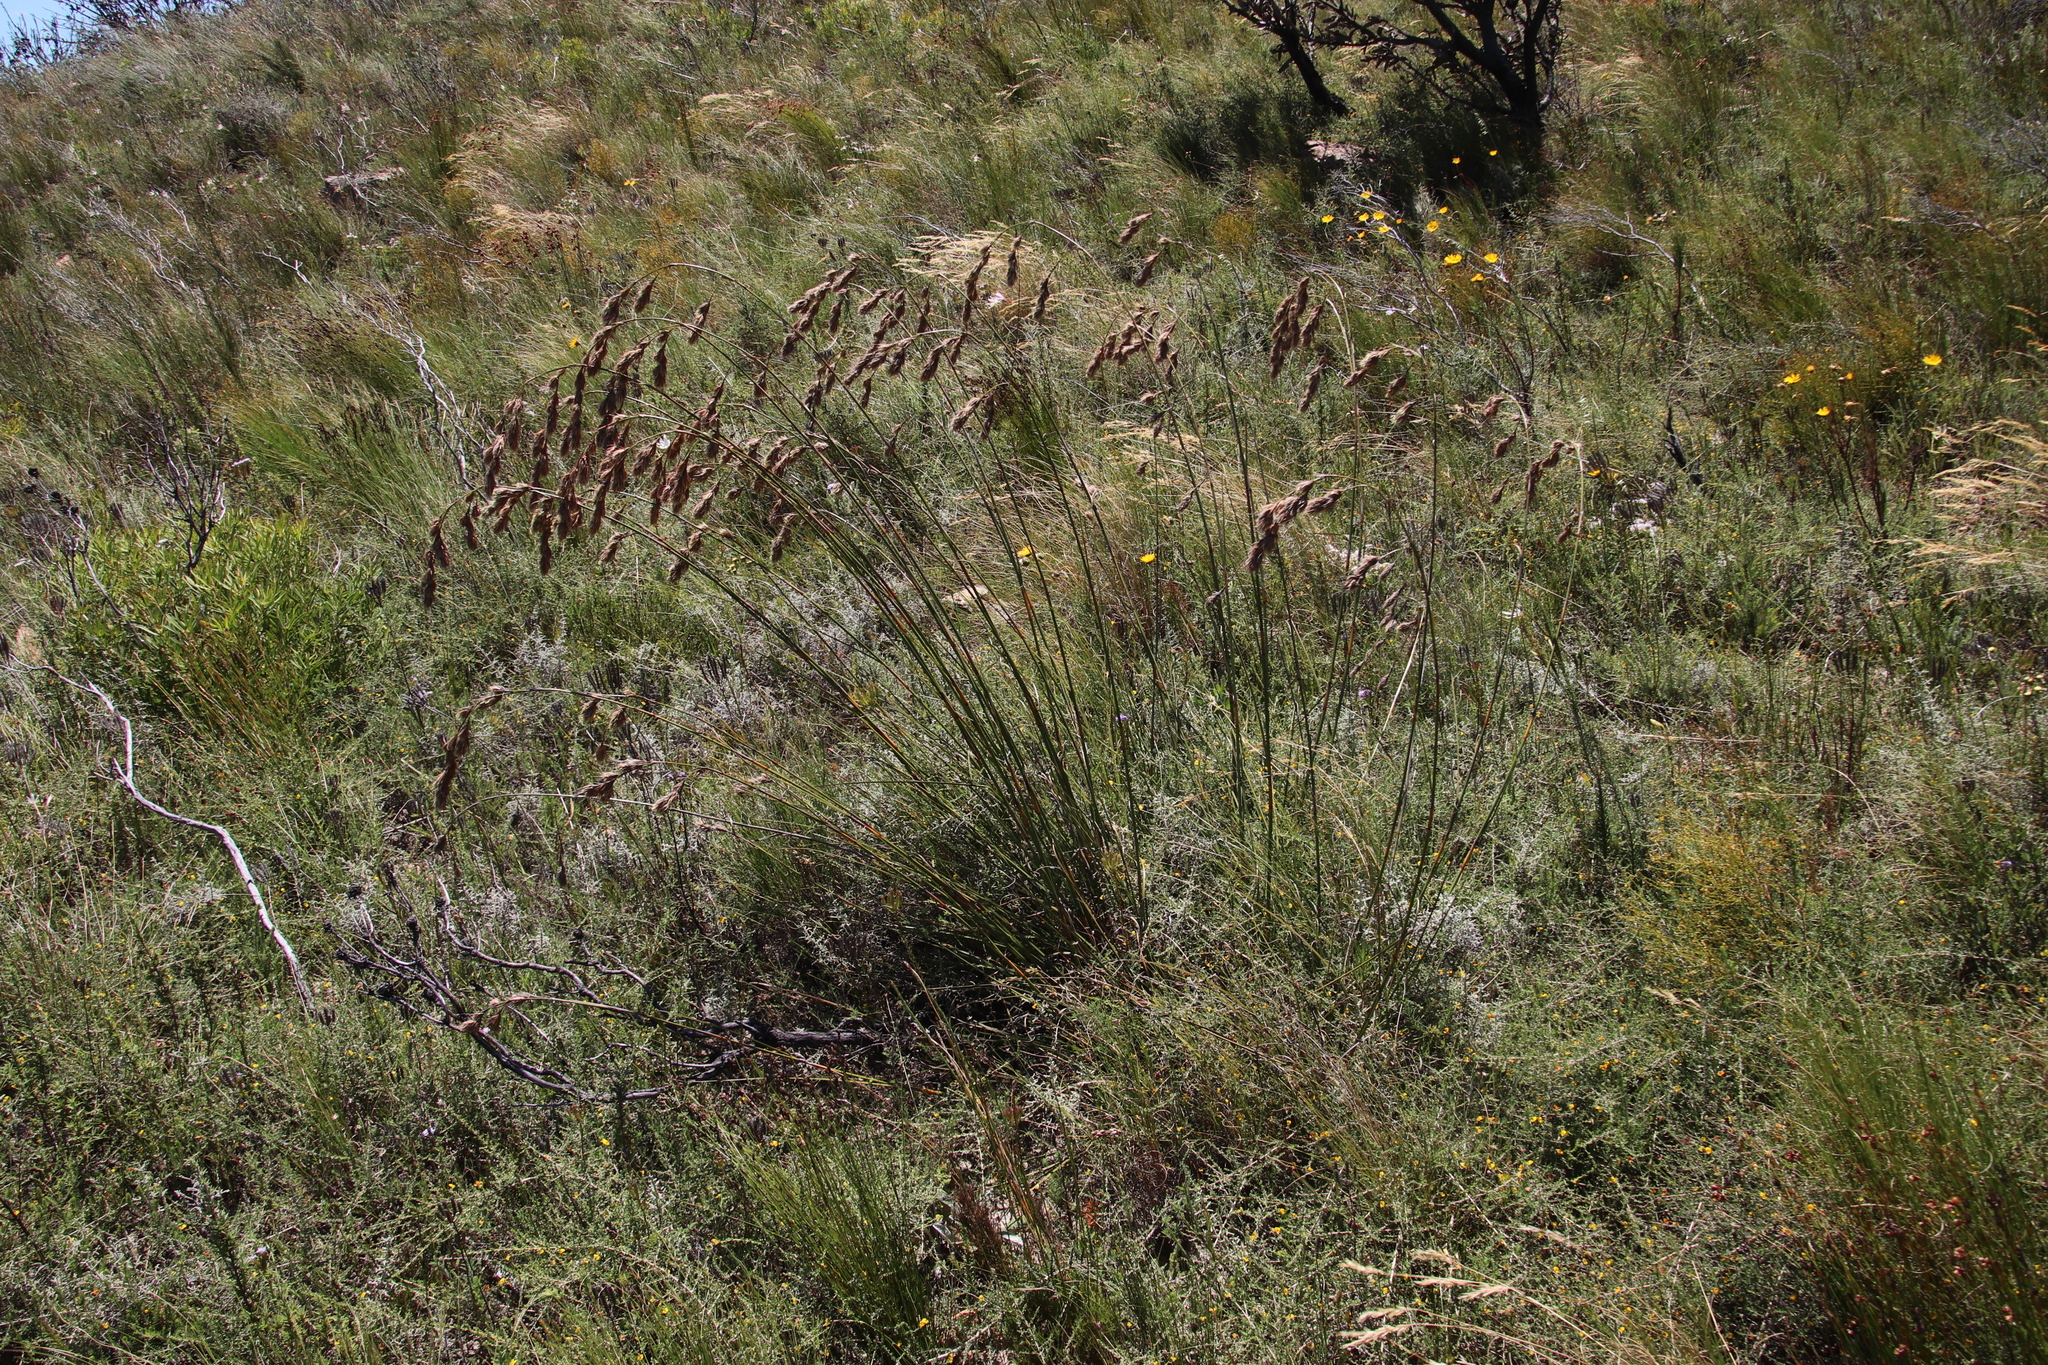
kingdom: Plantae
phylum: Tracheophyta
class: Liliopsida
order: Poales
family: Cyperaceae
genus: Tetraria
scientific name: Tetraria bromoides
